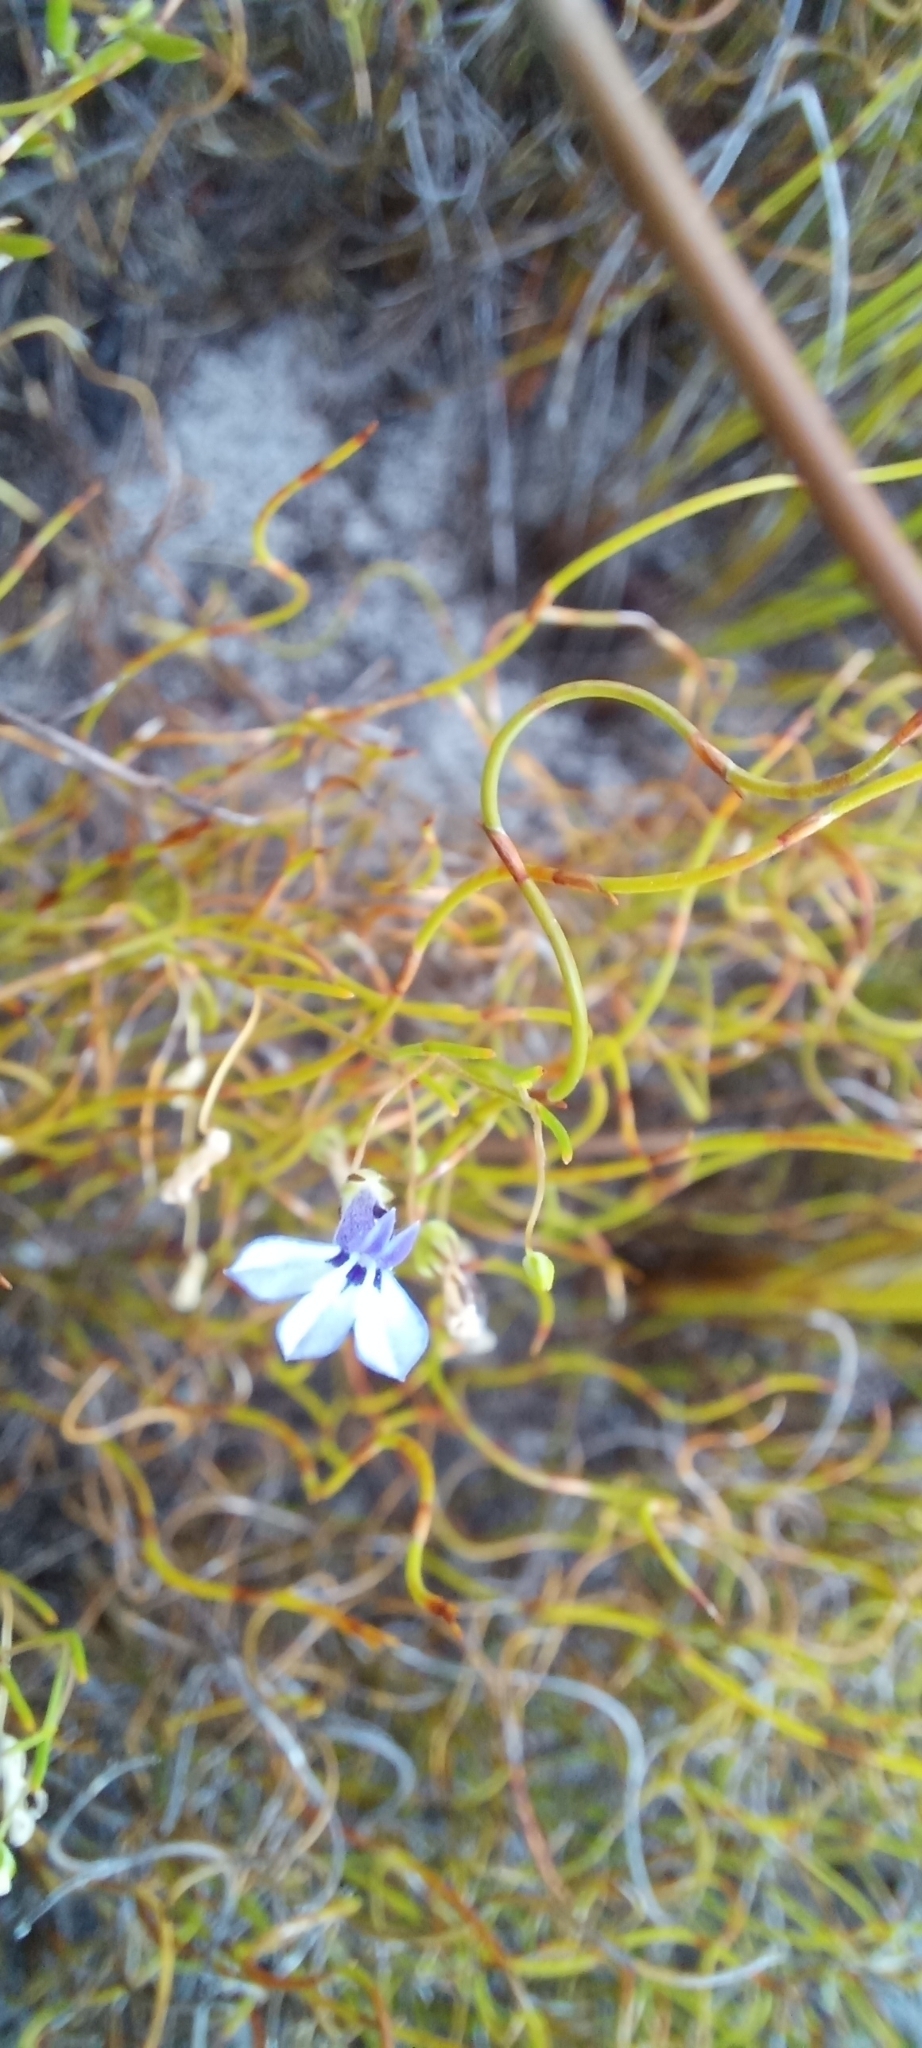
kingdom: Plantae
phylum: Tracheophyta
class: Magnoliopsida
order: Asterales
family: Campanulaceae
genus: Lobelia
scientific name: Lobelia setacea
